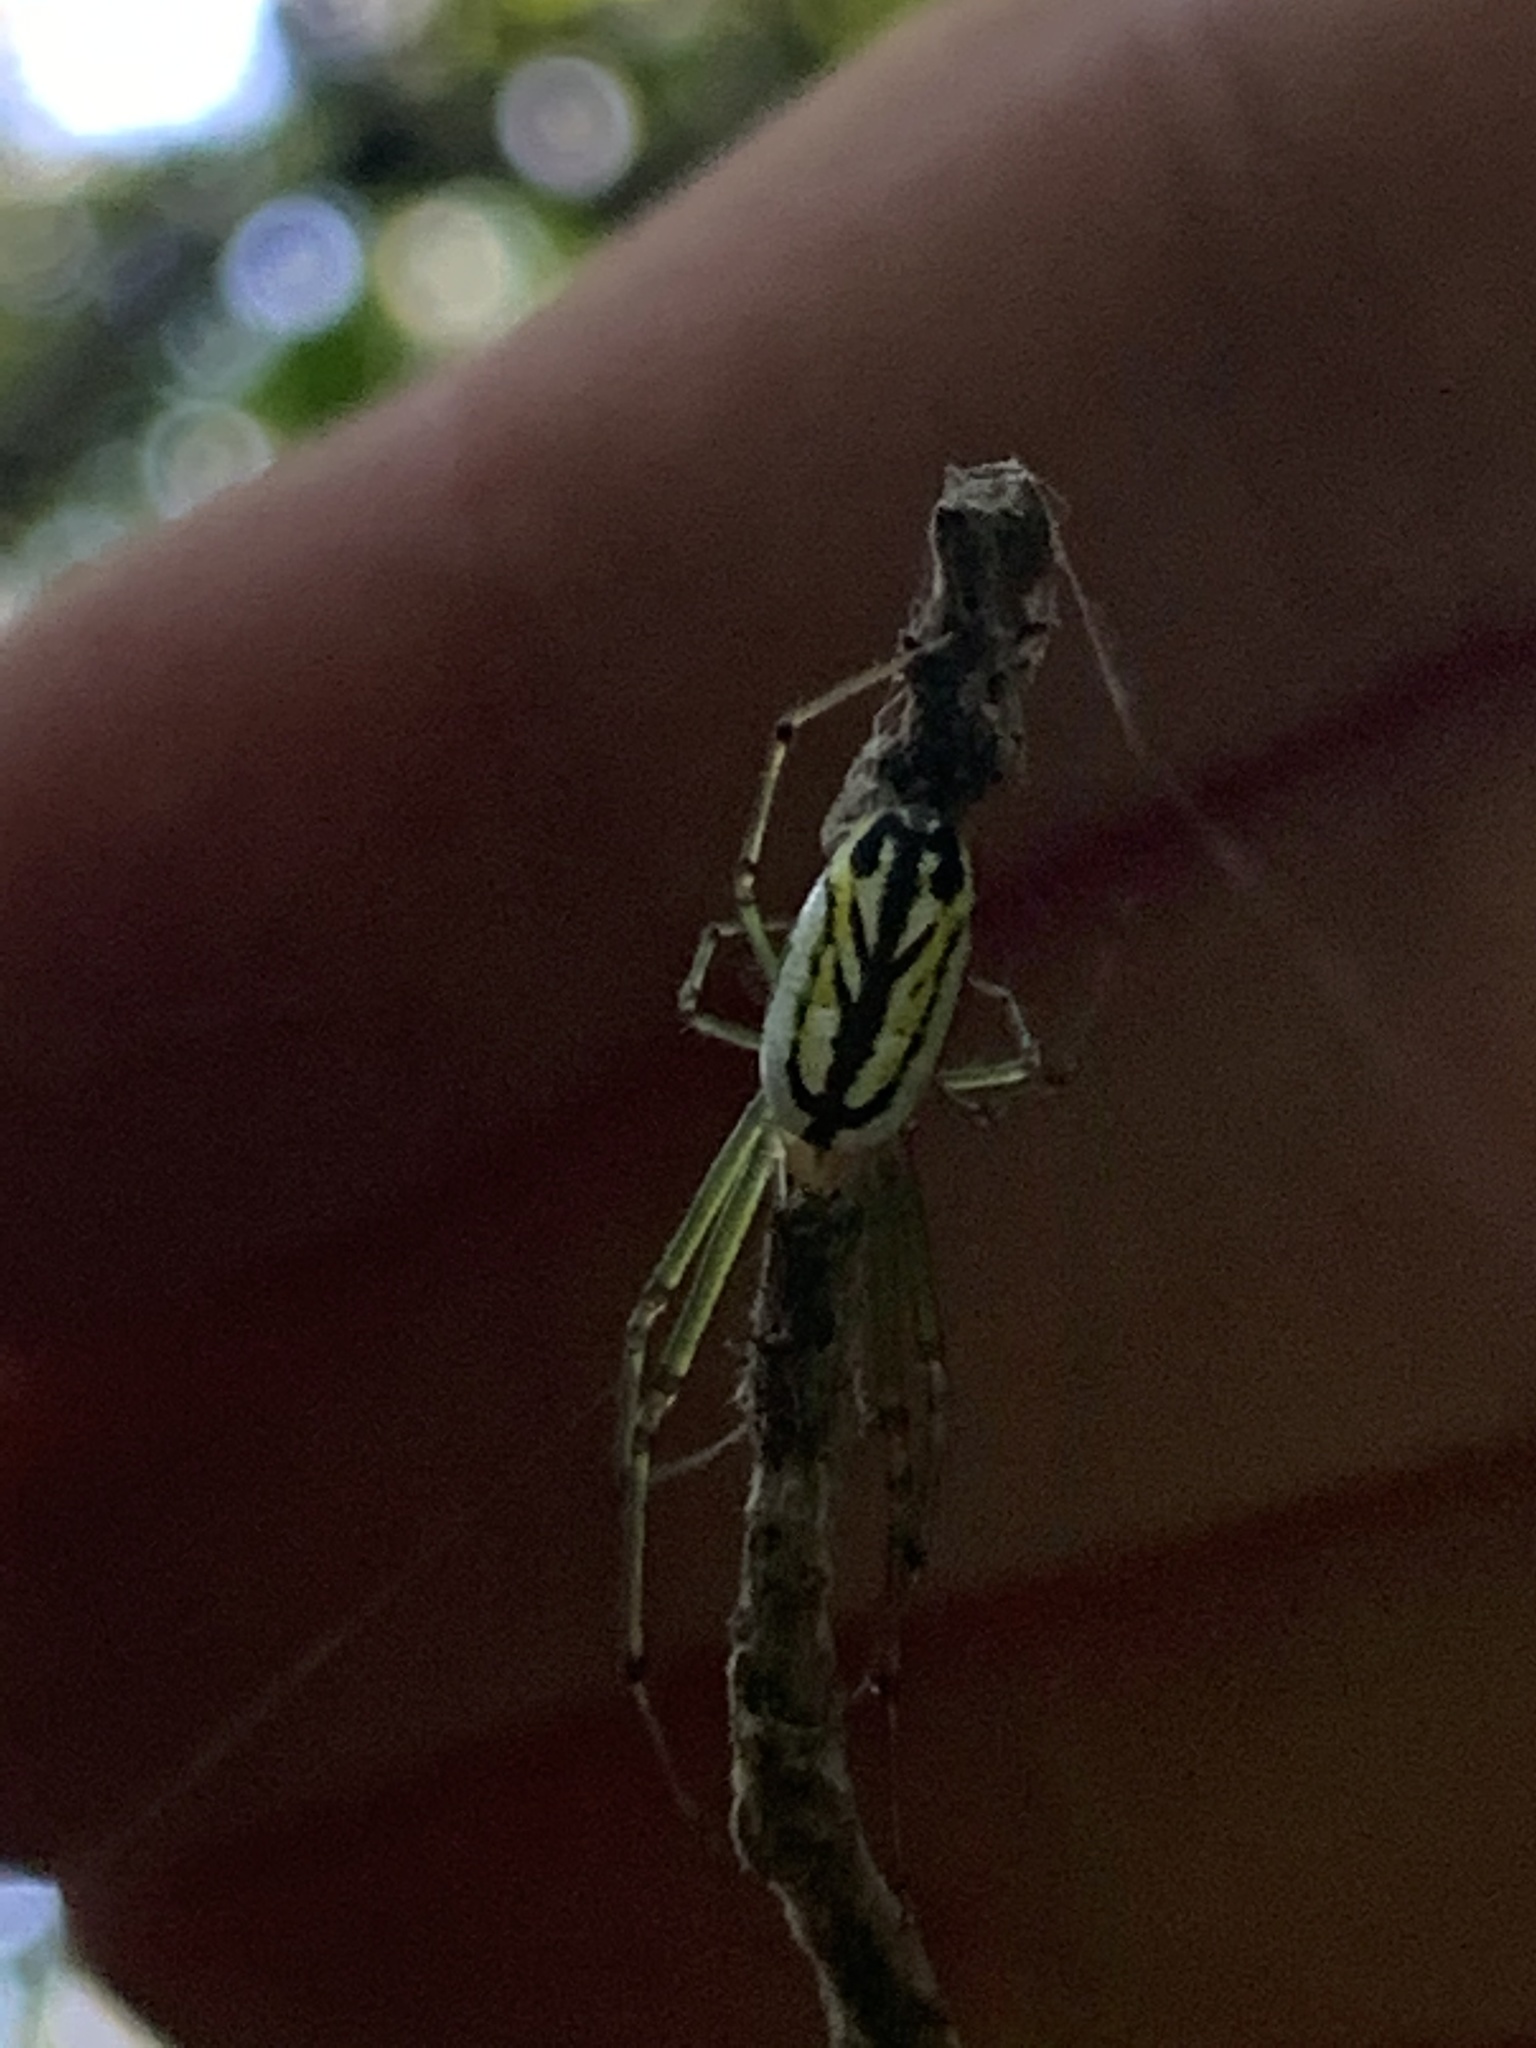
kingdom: Animalia
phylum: Arthropoda
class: Arachnida
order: Araneae
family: Tetragnathidae
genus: Leucauge
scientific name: Leucauge venusta
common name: Longjawed orb weavers
